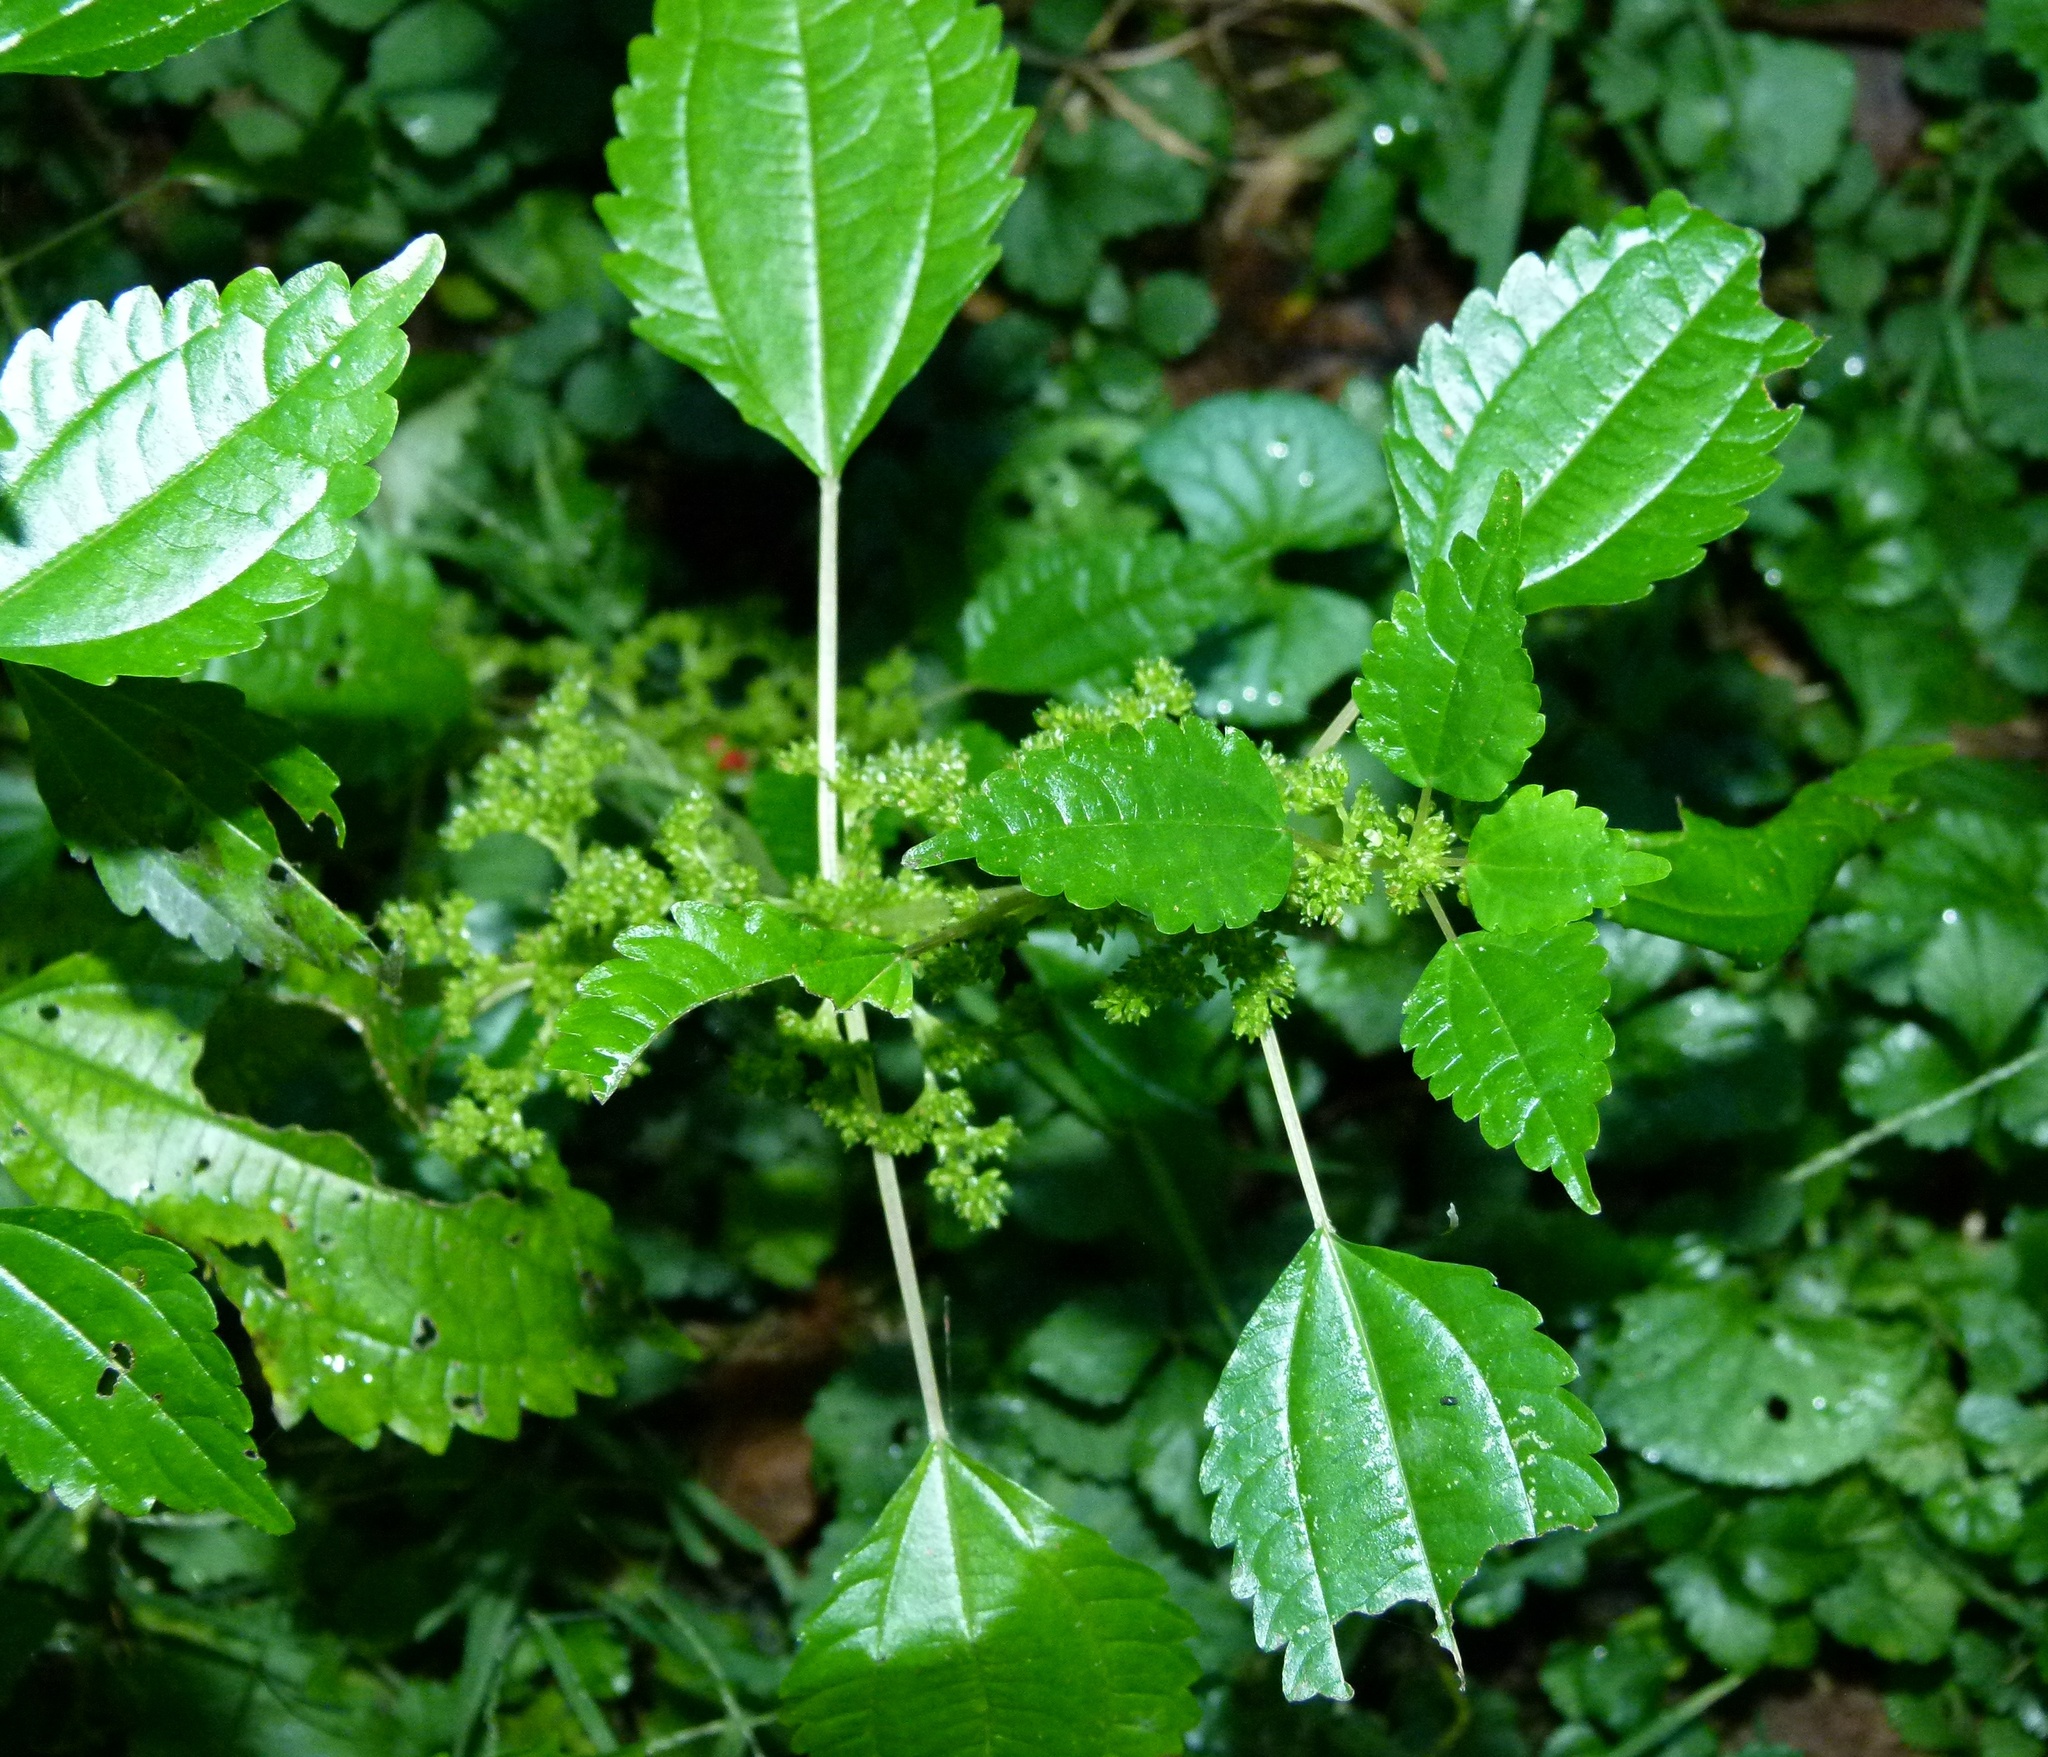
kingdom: Plantae
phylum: Tracheophyta
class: Magnoliopsida
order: Rosales
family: Urticaceae
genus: Pilea
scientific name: Pilea pumila
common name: Clearweed
